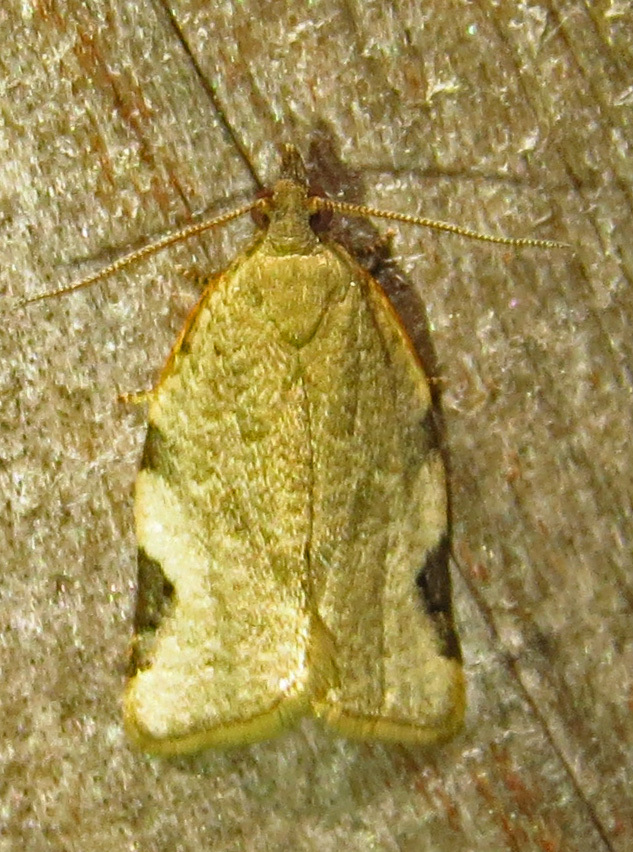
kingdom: Animalia
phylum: Arthropoda
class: Insecta
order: Lepidoptera
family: Tortricidae
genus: Clepsis
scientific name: Clepsis virescana
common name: Greenish apple moth
